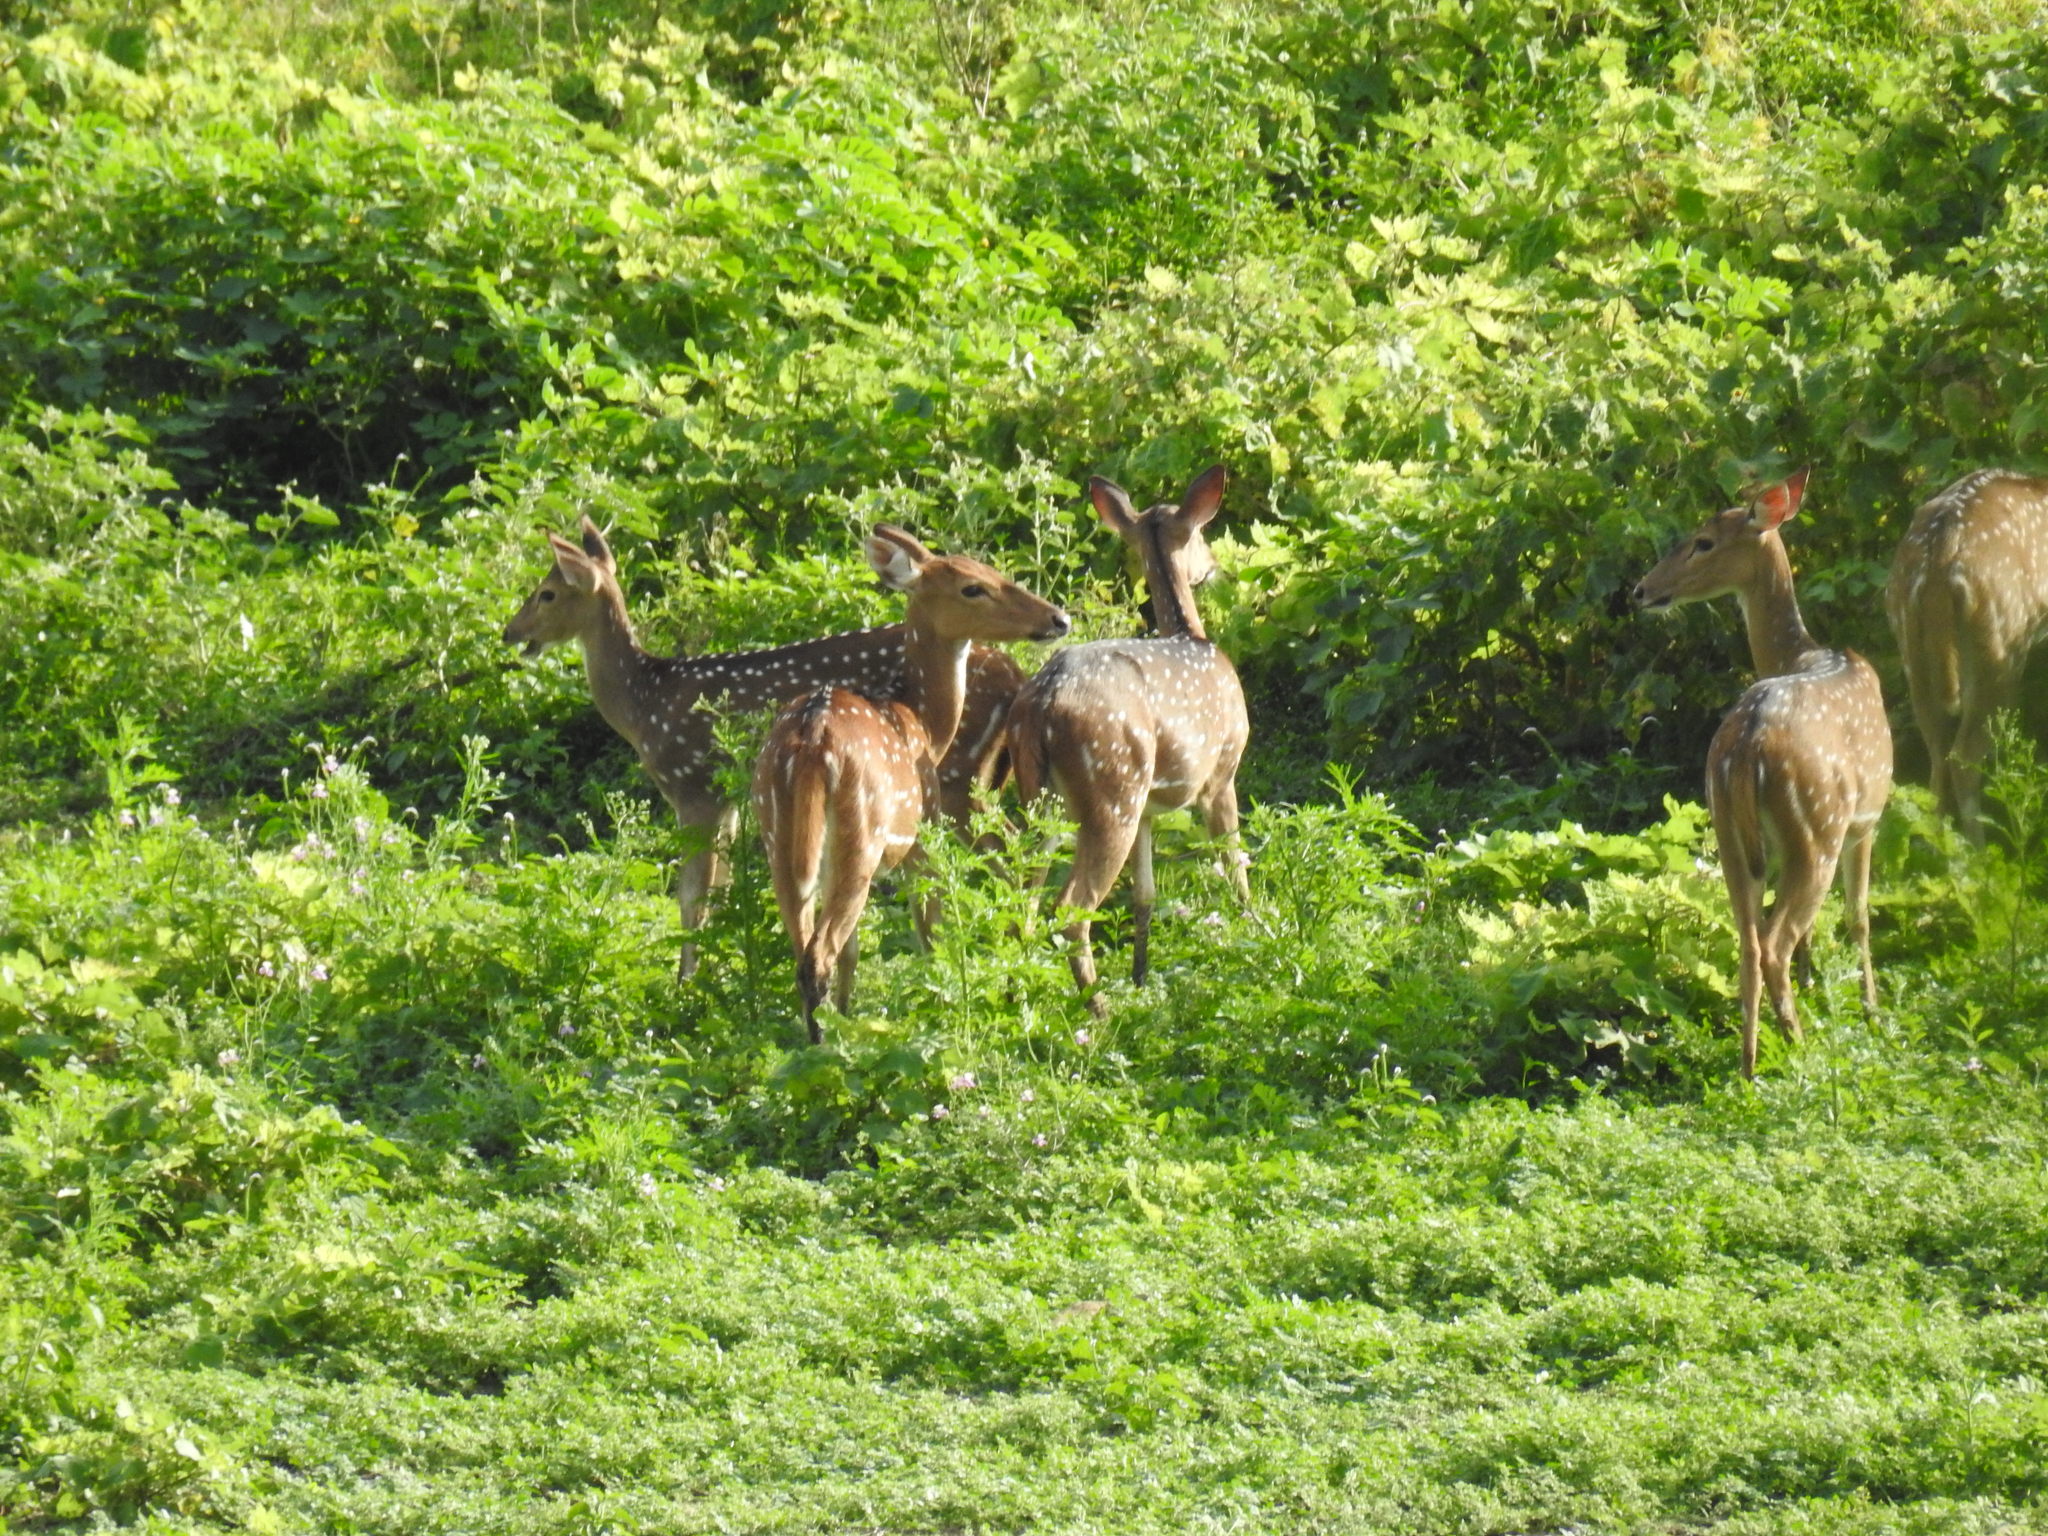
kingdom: Animalia
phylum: Chordata
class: Mammalia
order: Artiodactyla
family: Cervidae
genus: Axis
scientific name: Axis axis
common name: Chital
